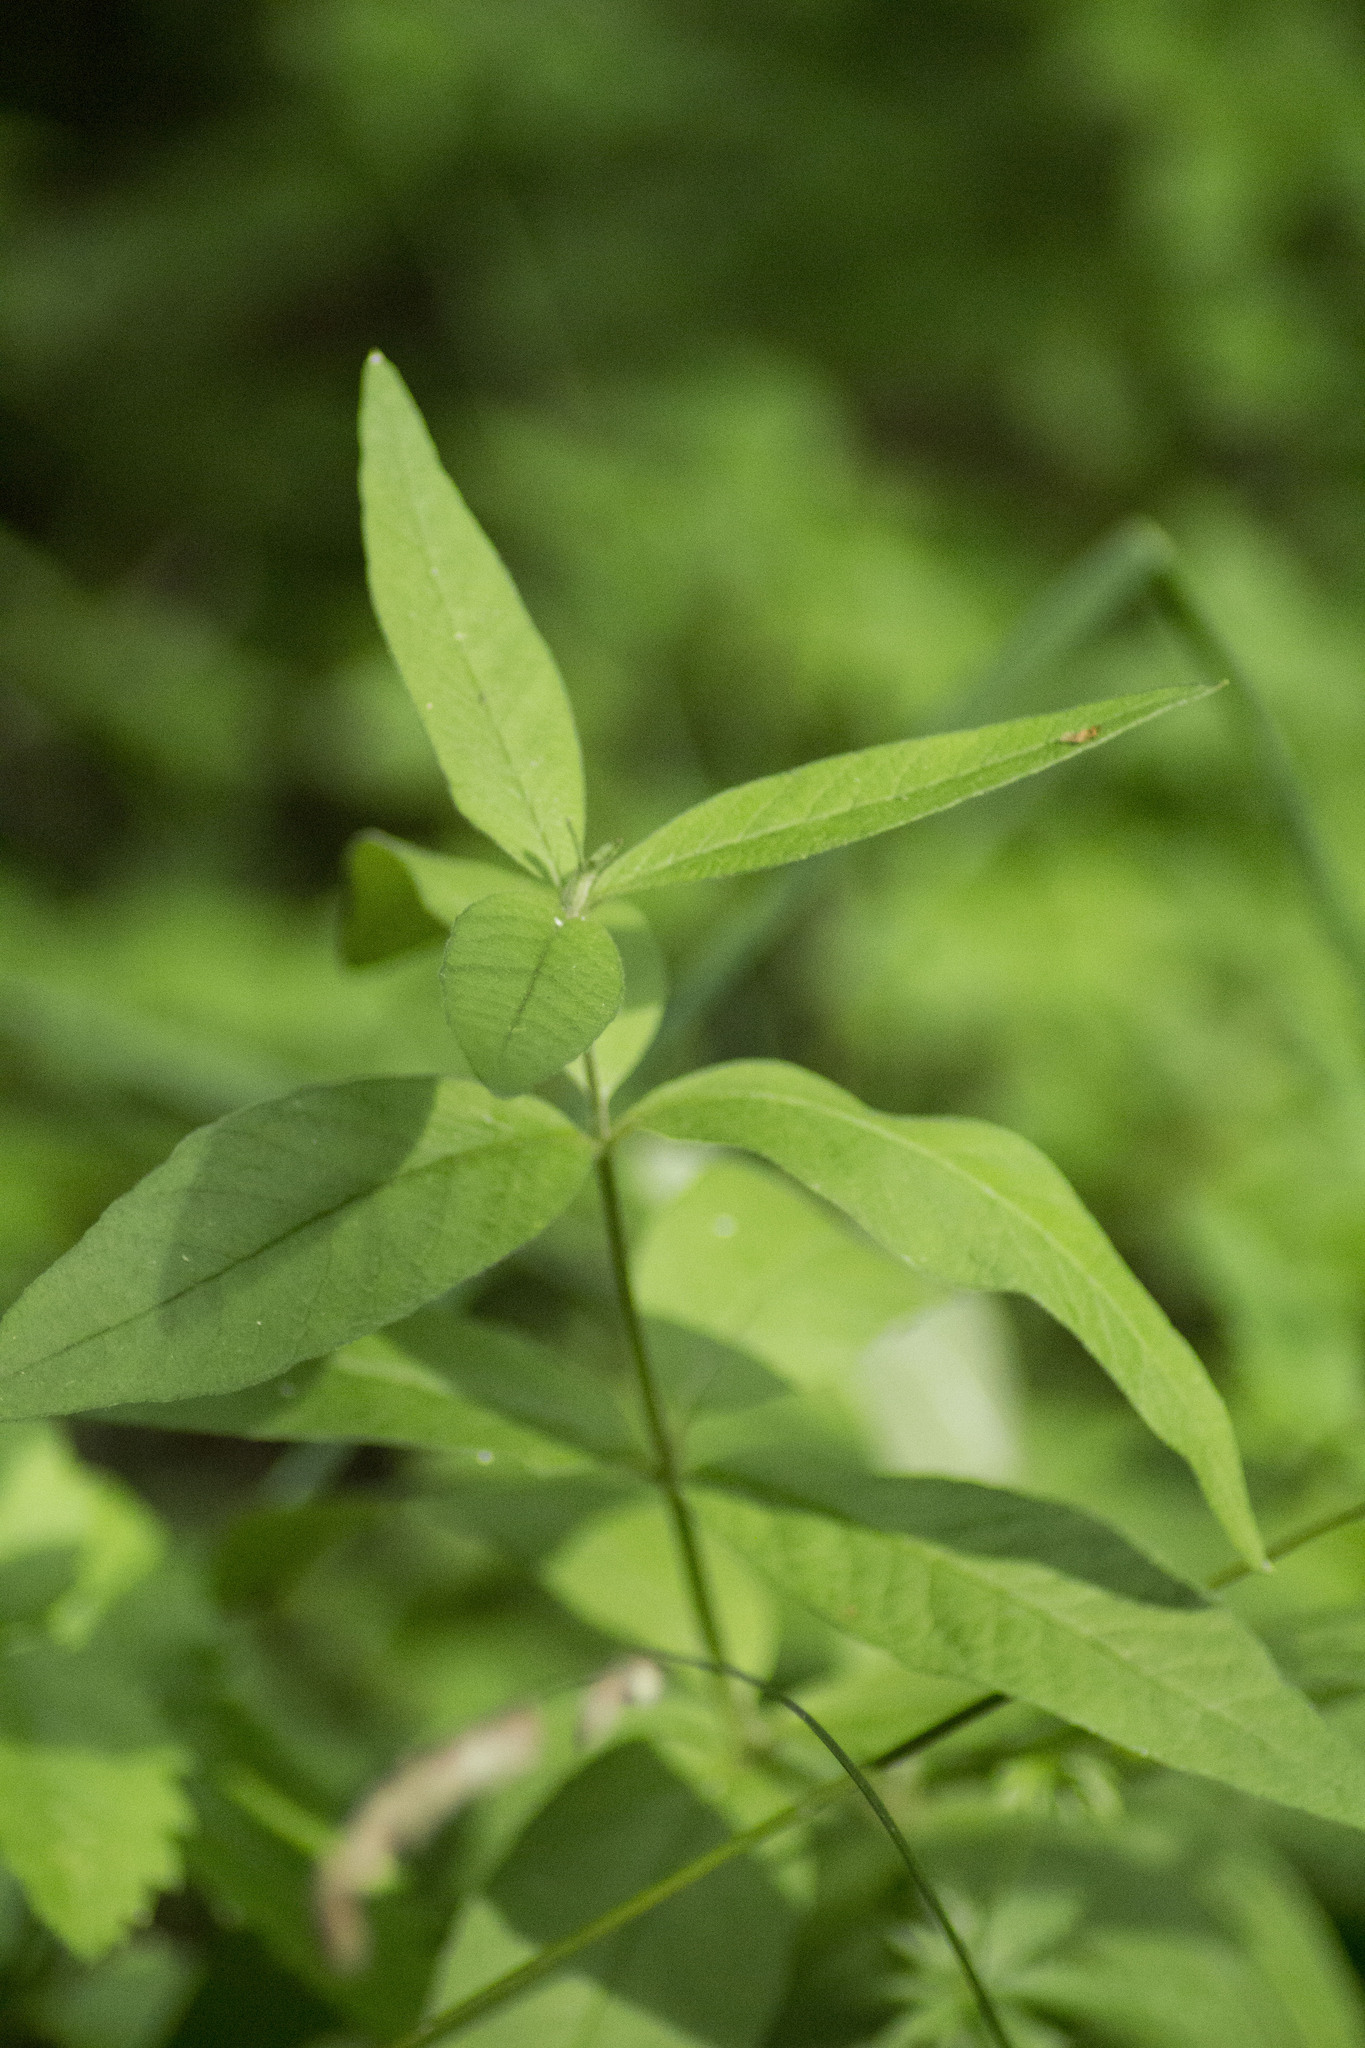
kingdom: Plantae
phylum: Tracheophyta
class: Magnoliopsida
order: Ericales
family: Primulaceae
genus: Lysimachia
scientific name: Lysimachia vulgaris
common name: Yellow loosestrife
